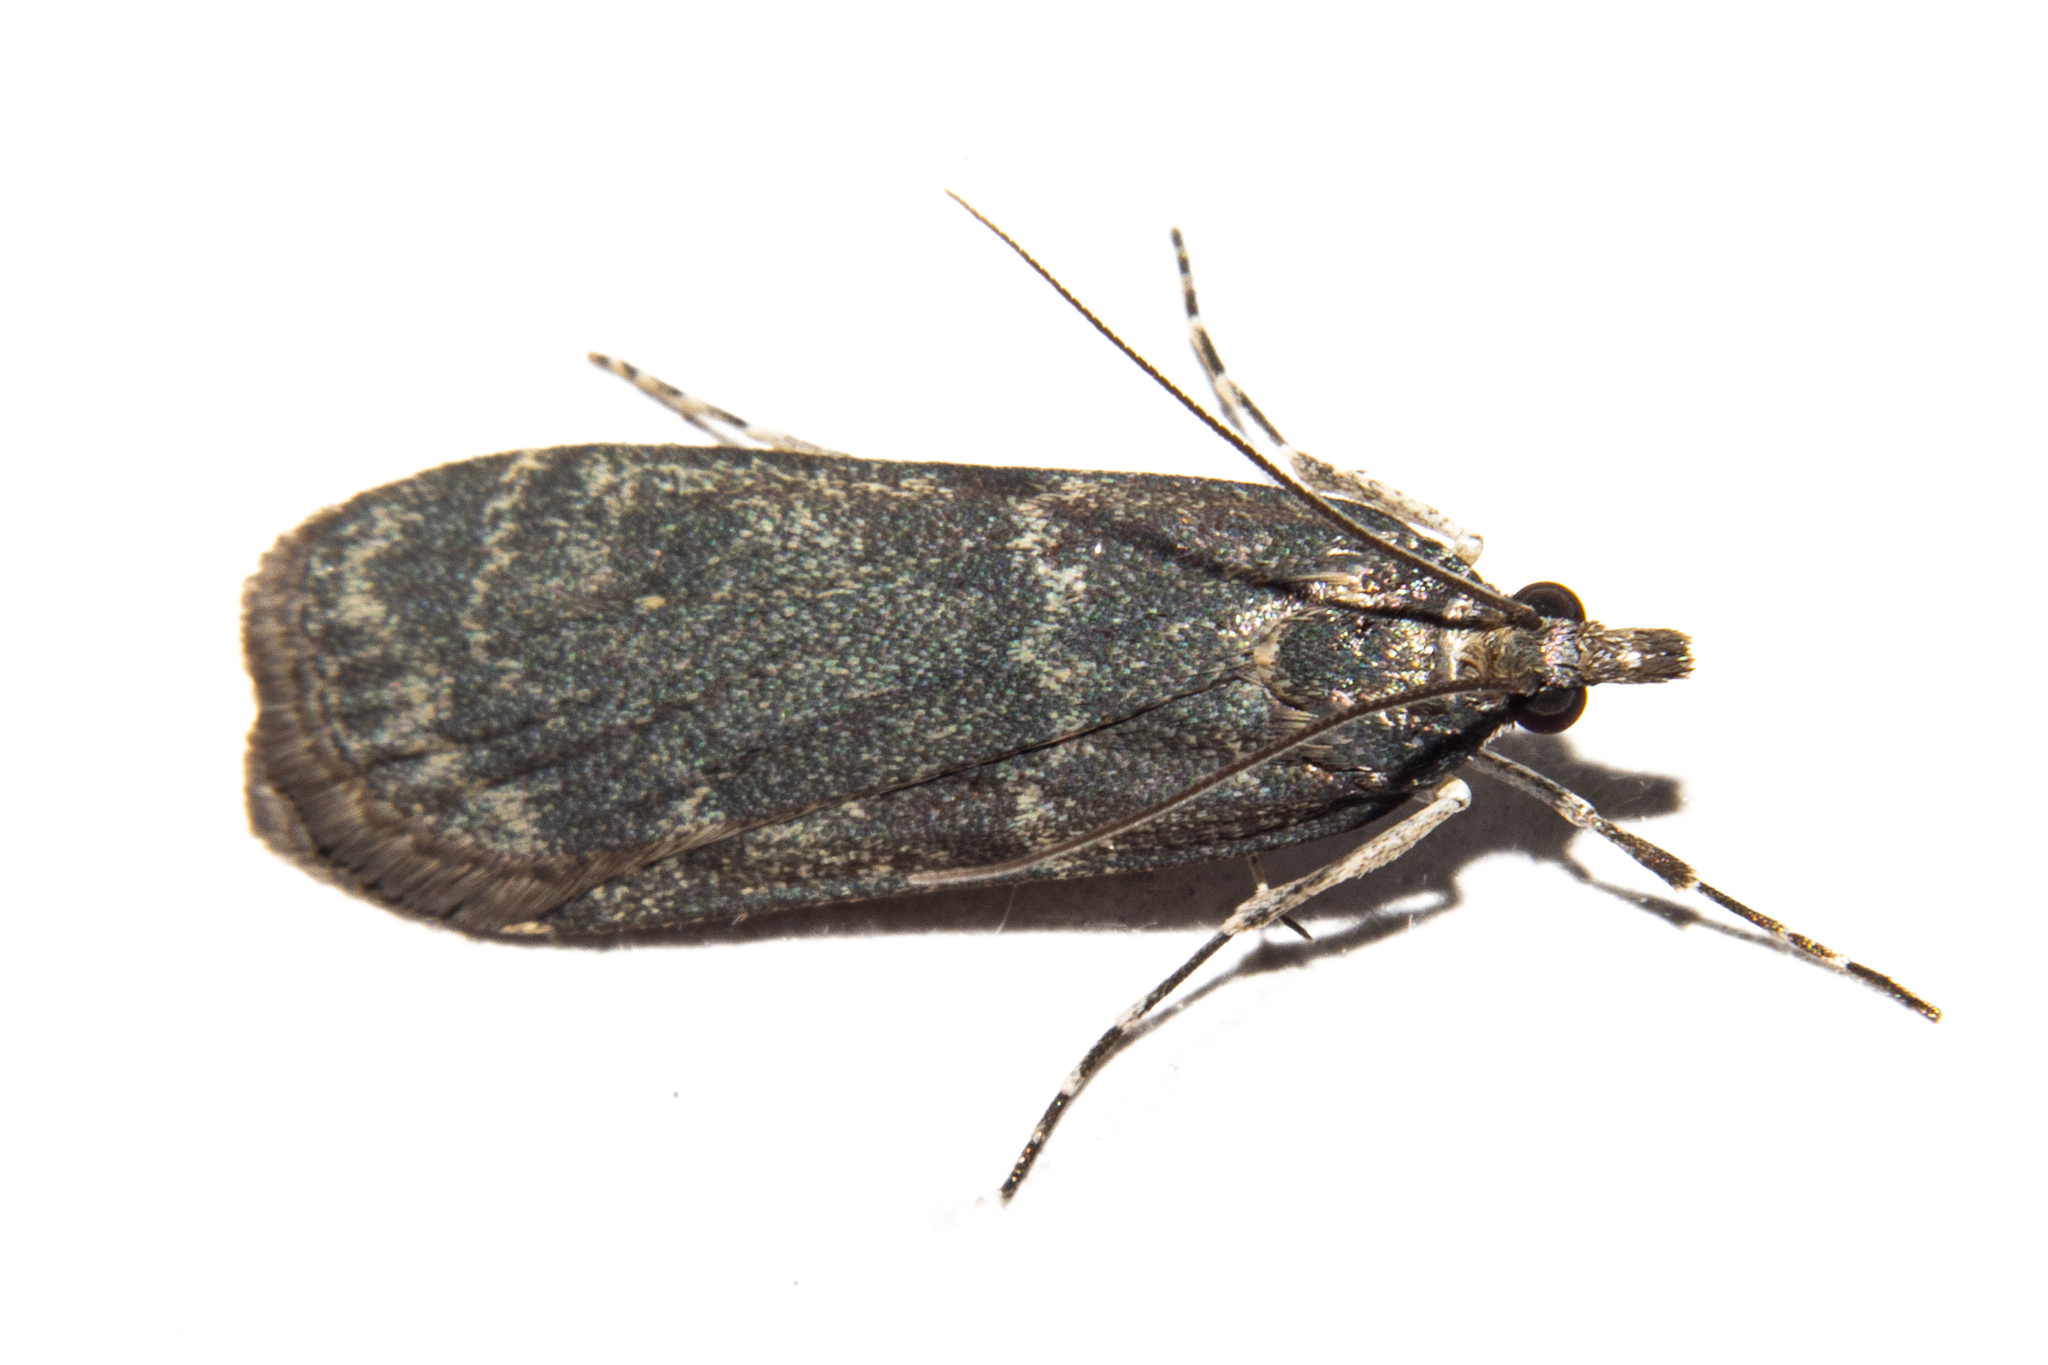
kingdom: Animalia
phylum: Arthropoda
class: Insecta
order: Lepidoptera
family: Crambidae
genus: Eudonia
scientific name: Eudonia cataxesta
